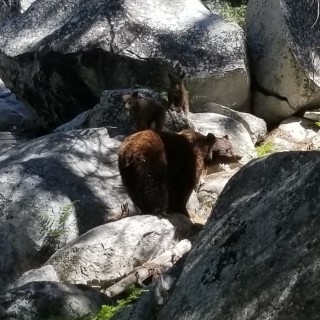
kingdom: Animalia
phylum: Chordata
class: Mammalia
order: Carnivora
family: Ursidae
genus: Ursus
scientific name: Ursus americanus
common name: American black bear
